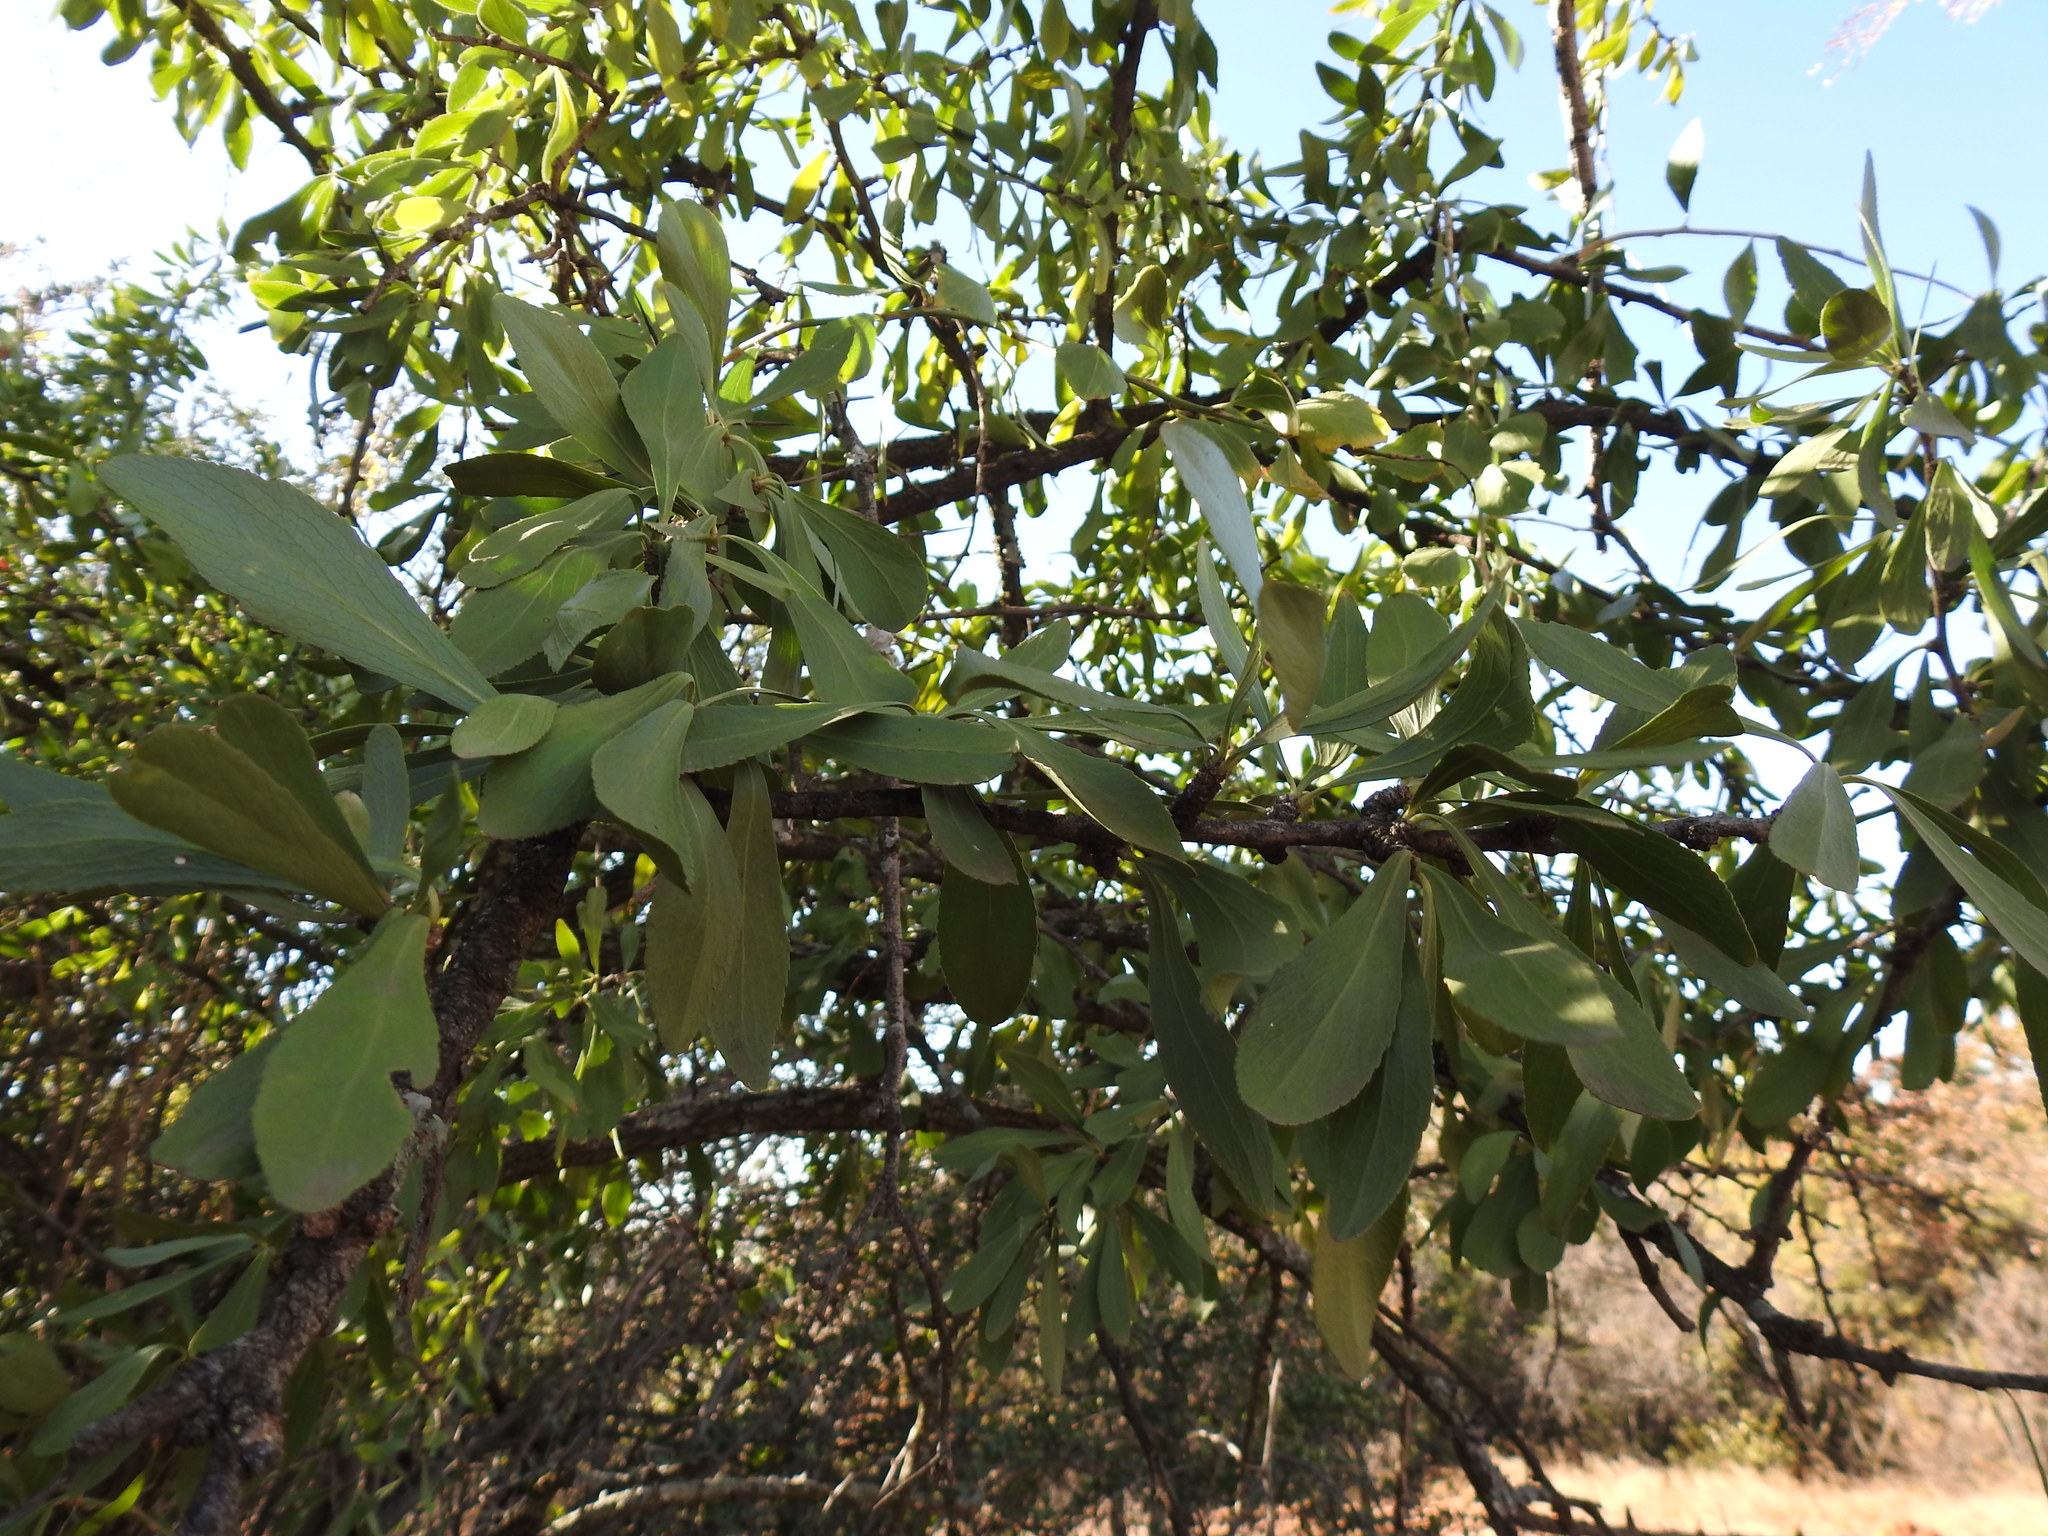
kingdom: Plantae
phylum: Tracheophyta
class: Magnoliopsida
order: Celastrales
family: Celastraceae
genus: Gymnosporia
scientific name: Gymnosporia buxifolia
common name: Common spike-thorn
